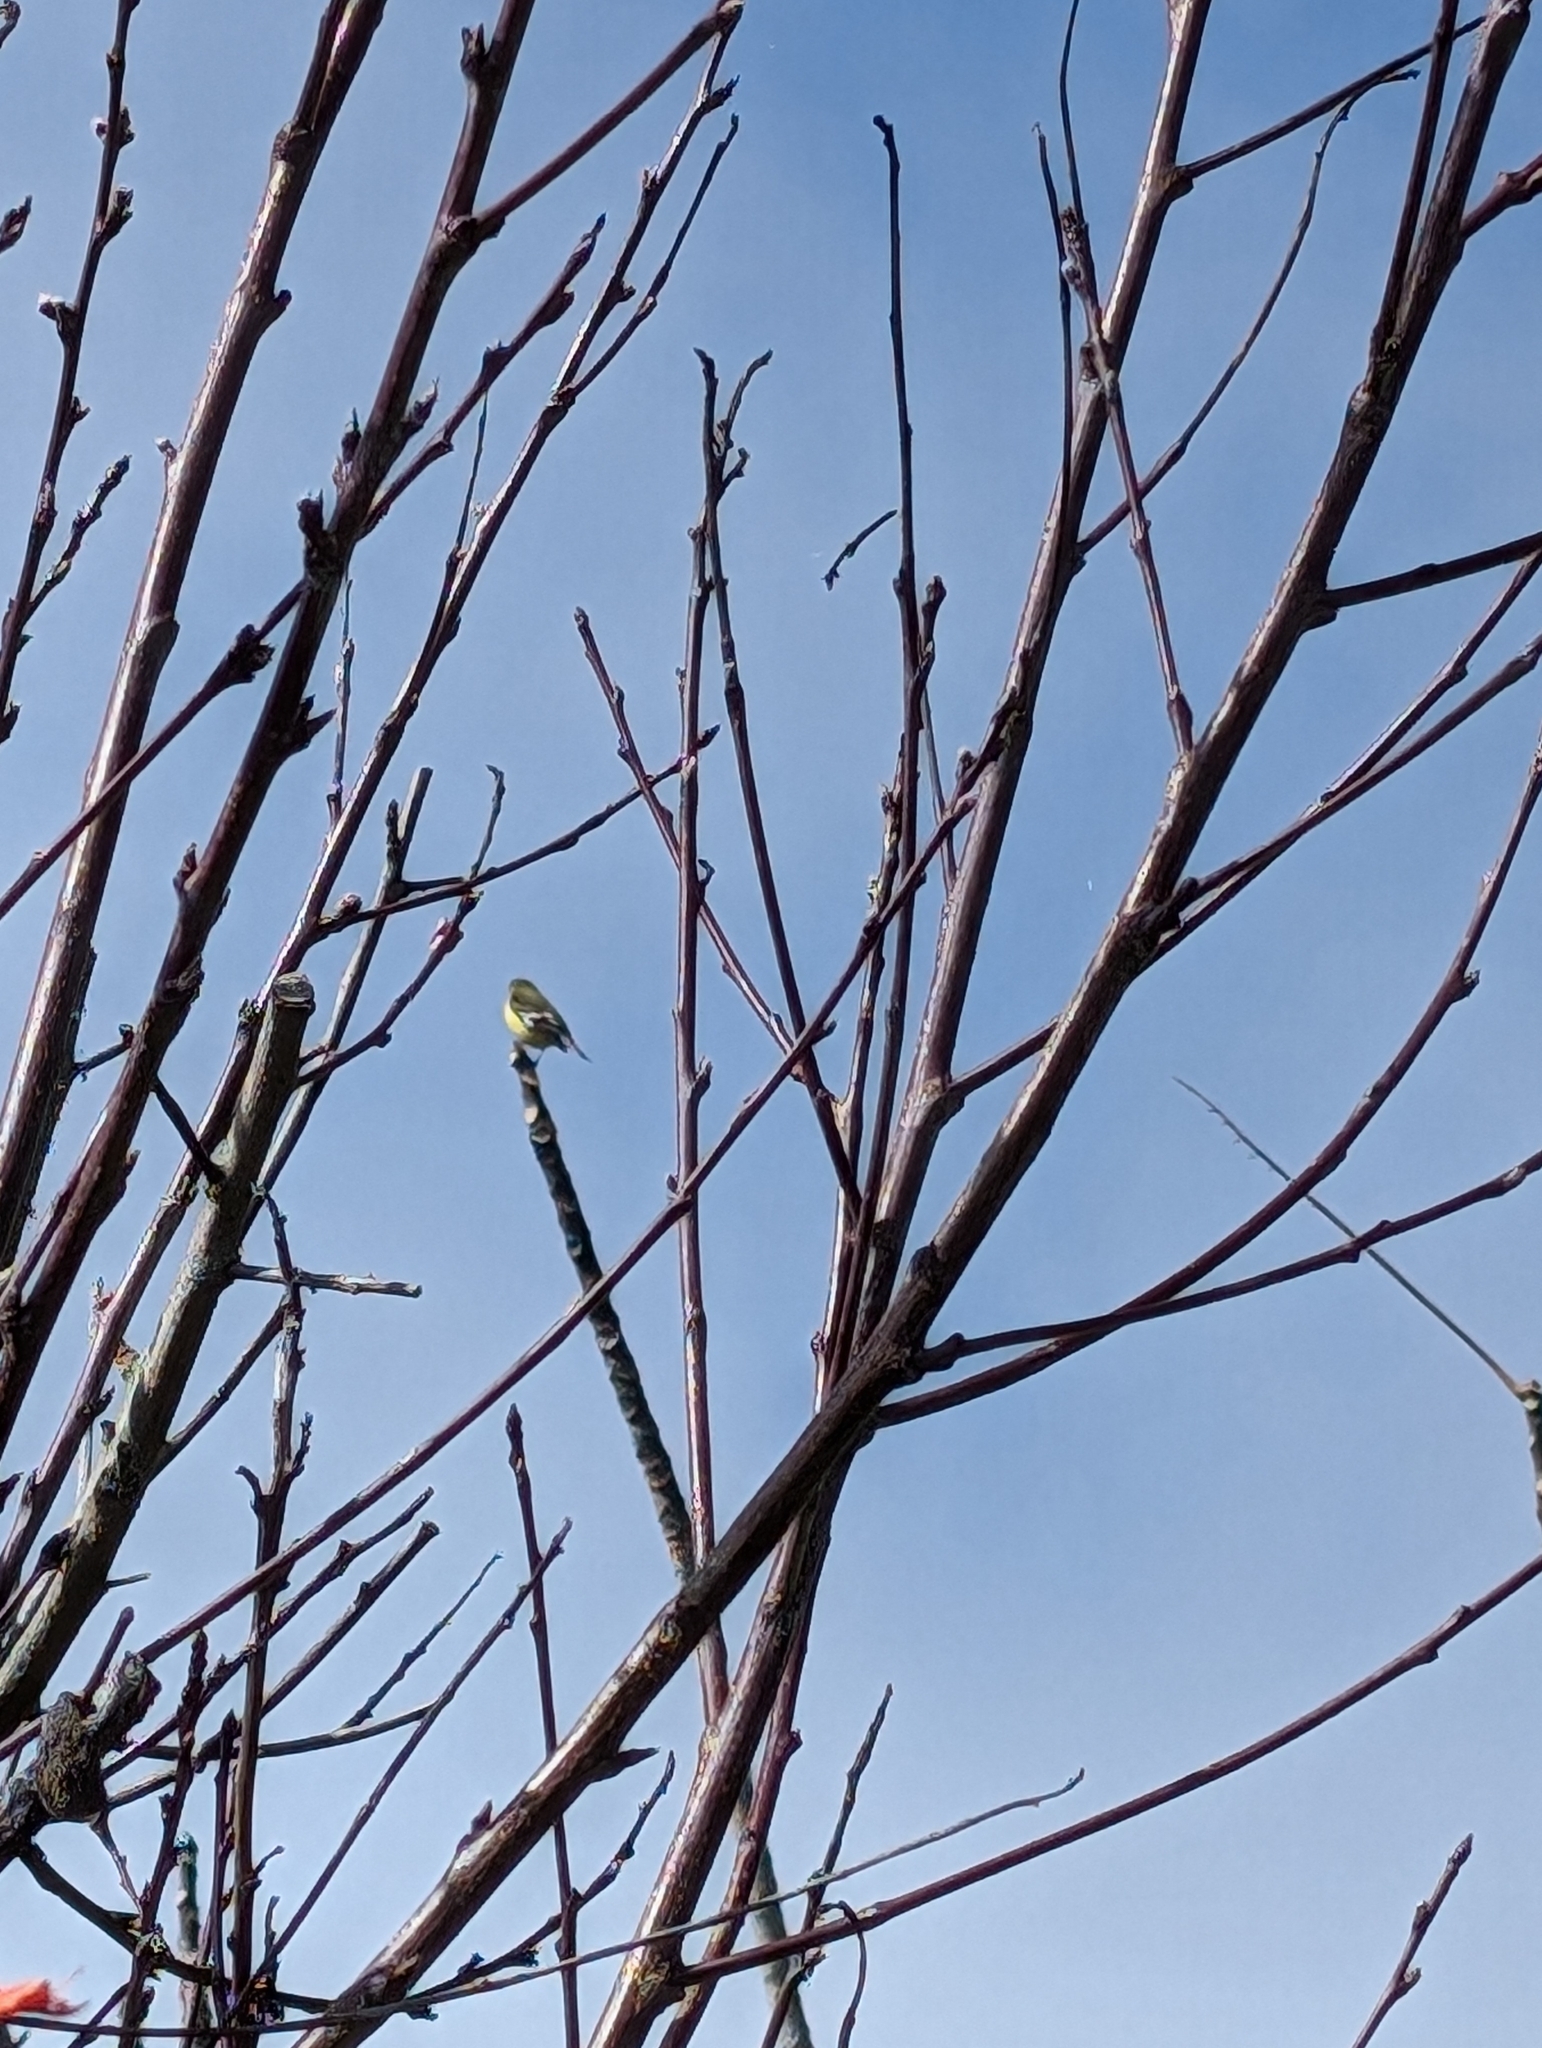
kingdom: Animalia
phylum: Chordata
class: Aves
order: Passeriformes
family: Fringillidae
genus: Spinus
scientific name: Spinus psaltria
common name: Lesser goldfinch
